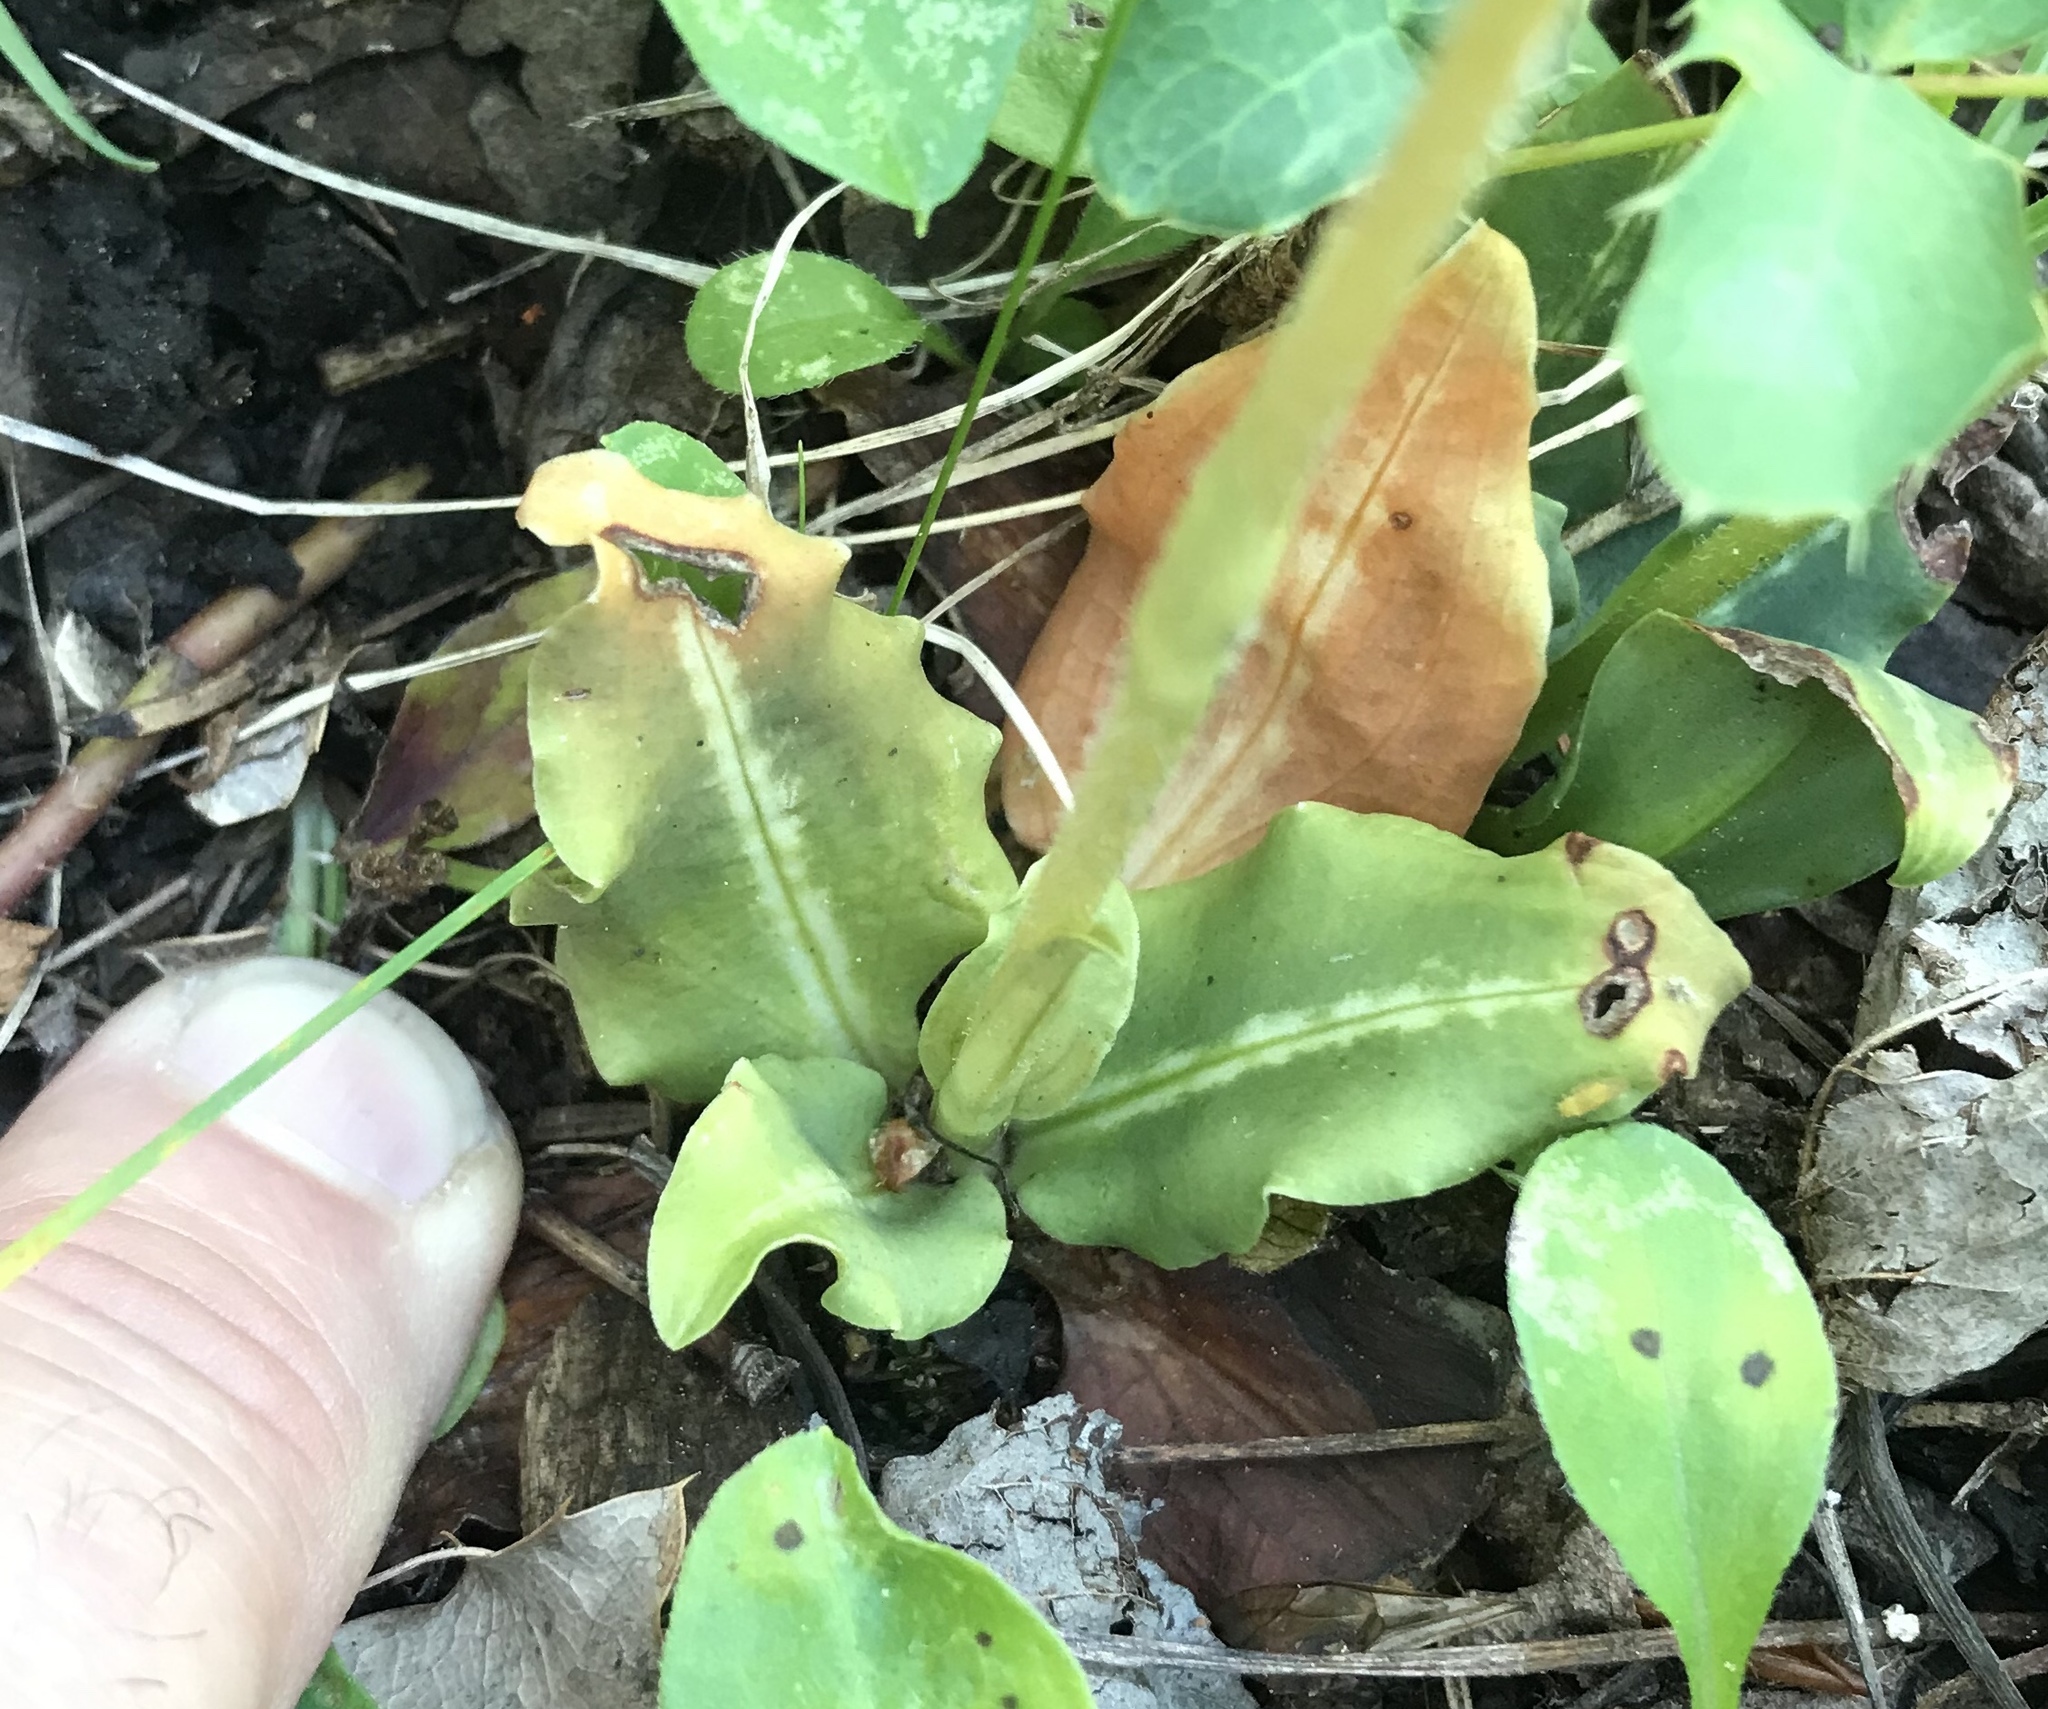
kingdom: Plantae
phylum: Tracheophyta
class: Liliopsida
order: Asparagales
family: Orchidaceae
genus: Goodyera
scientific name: Goodyera oblongifolia
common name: Giant rattlesnake-plantain
